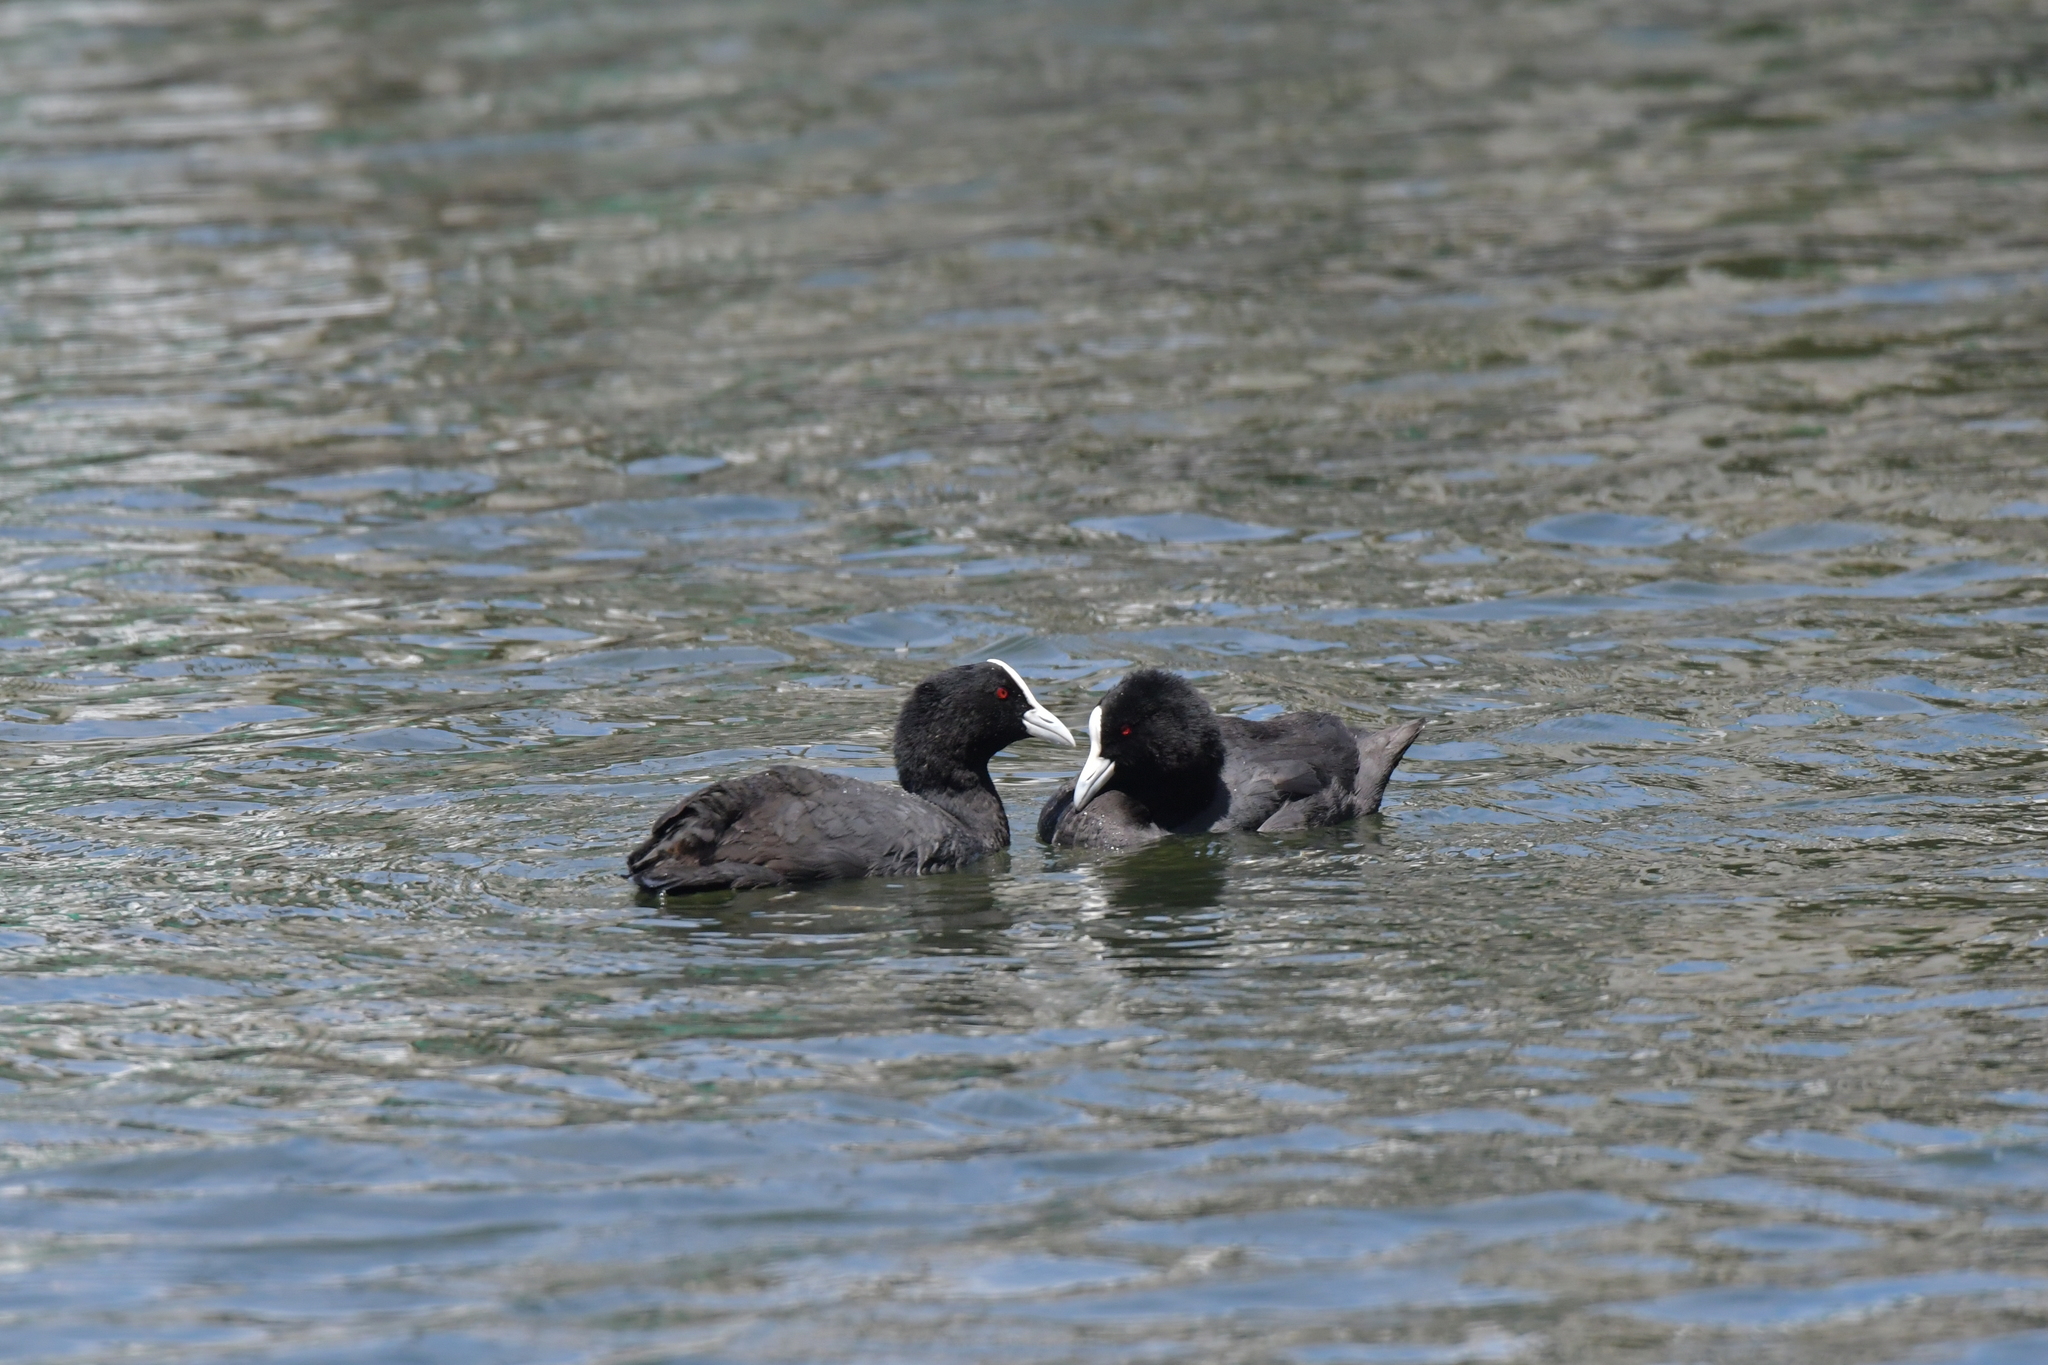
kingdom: Animalia
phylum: Chordata
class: Aves
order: Gruiformes
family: Rallidae
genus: Fulica
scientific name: Fulica atra
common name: Eurasian coot
